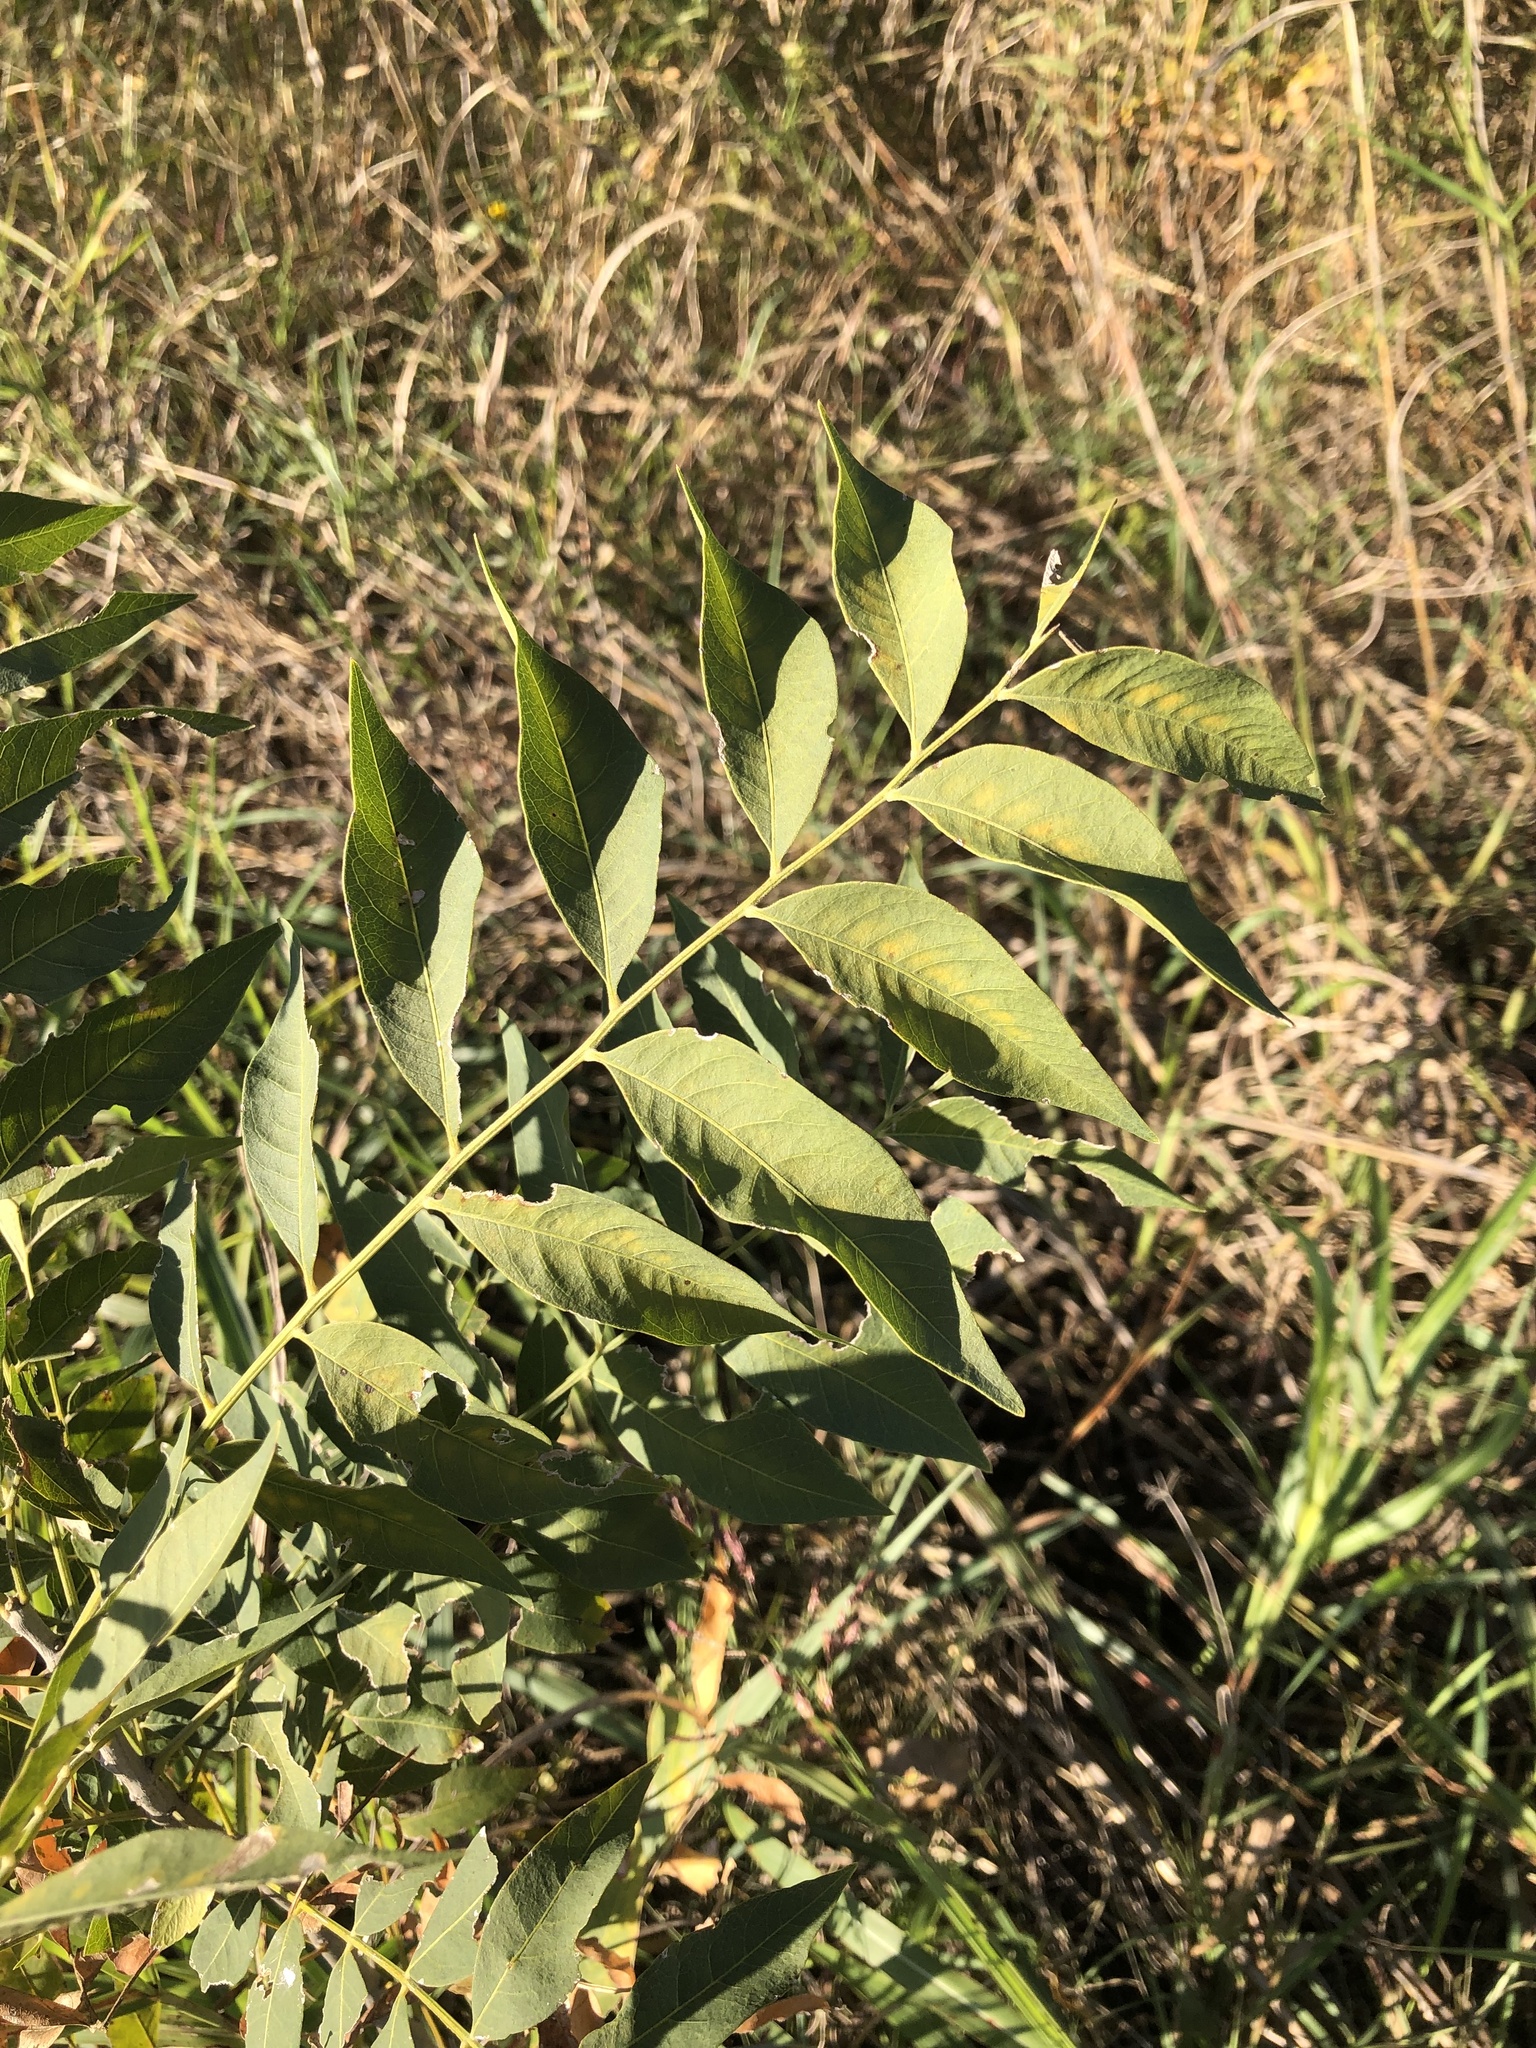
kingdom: Plantae
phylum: Tracheophyta
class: Magnoliopsida
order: Sapindales
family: Sapindaceae
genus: Sapindus
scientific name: Sapindus drummondii
